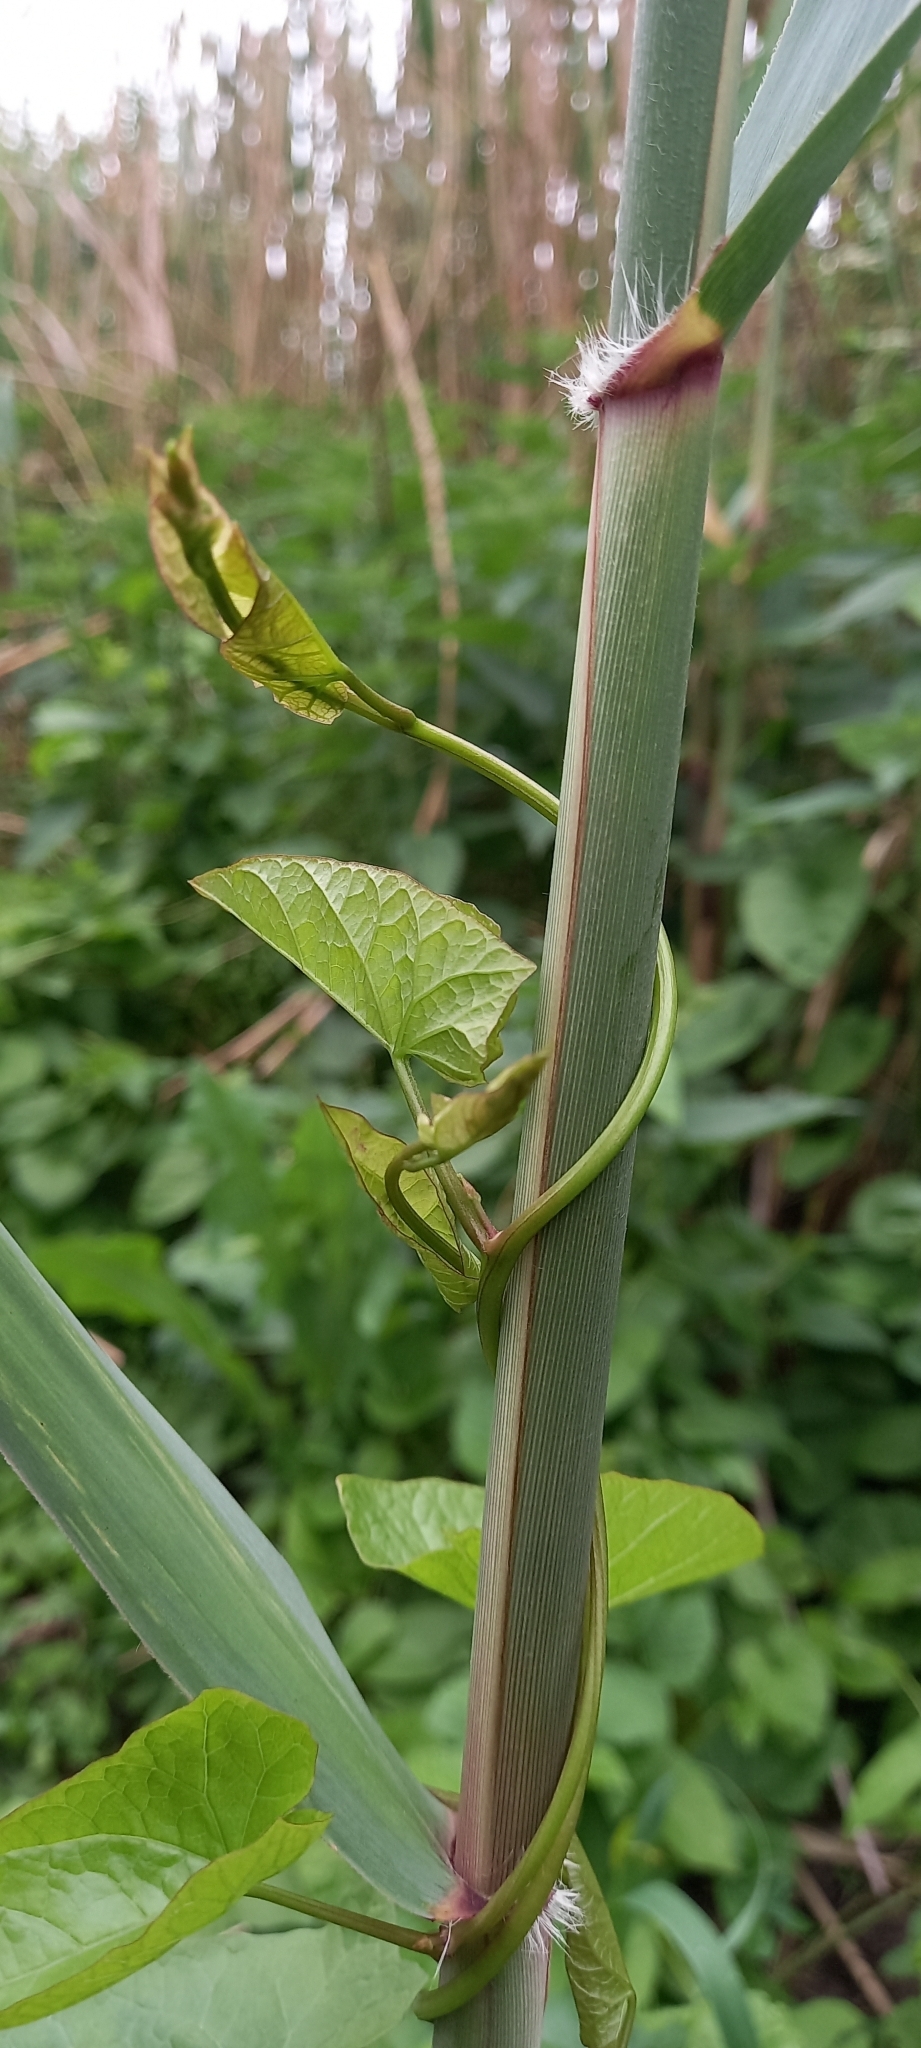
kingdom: Plantae
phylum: Tracheophyta
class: Magnoliopsida
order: Solanales
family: Convolvulaceae
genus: Calystegia
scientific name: Calystegia
